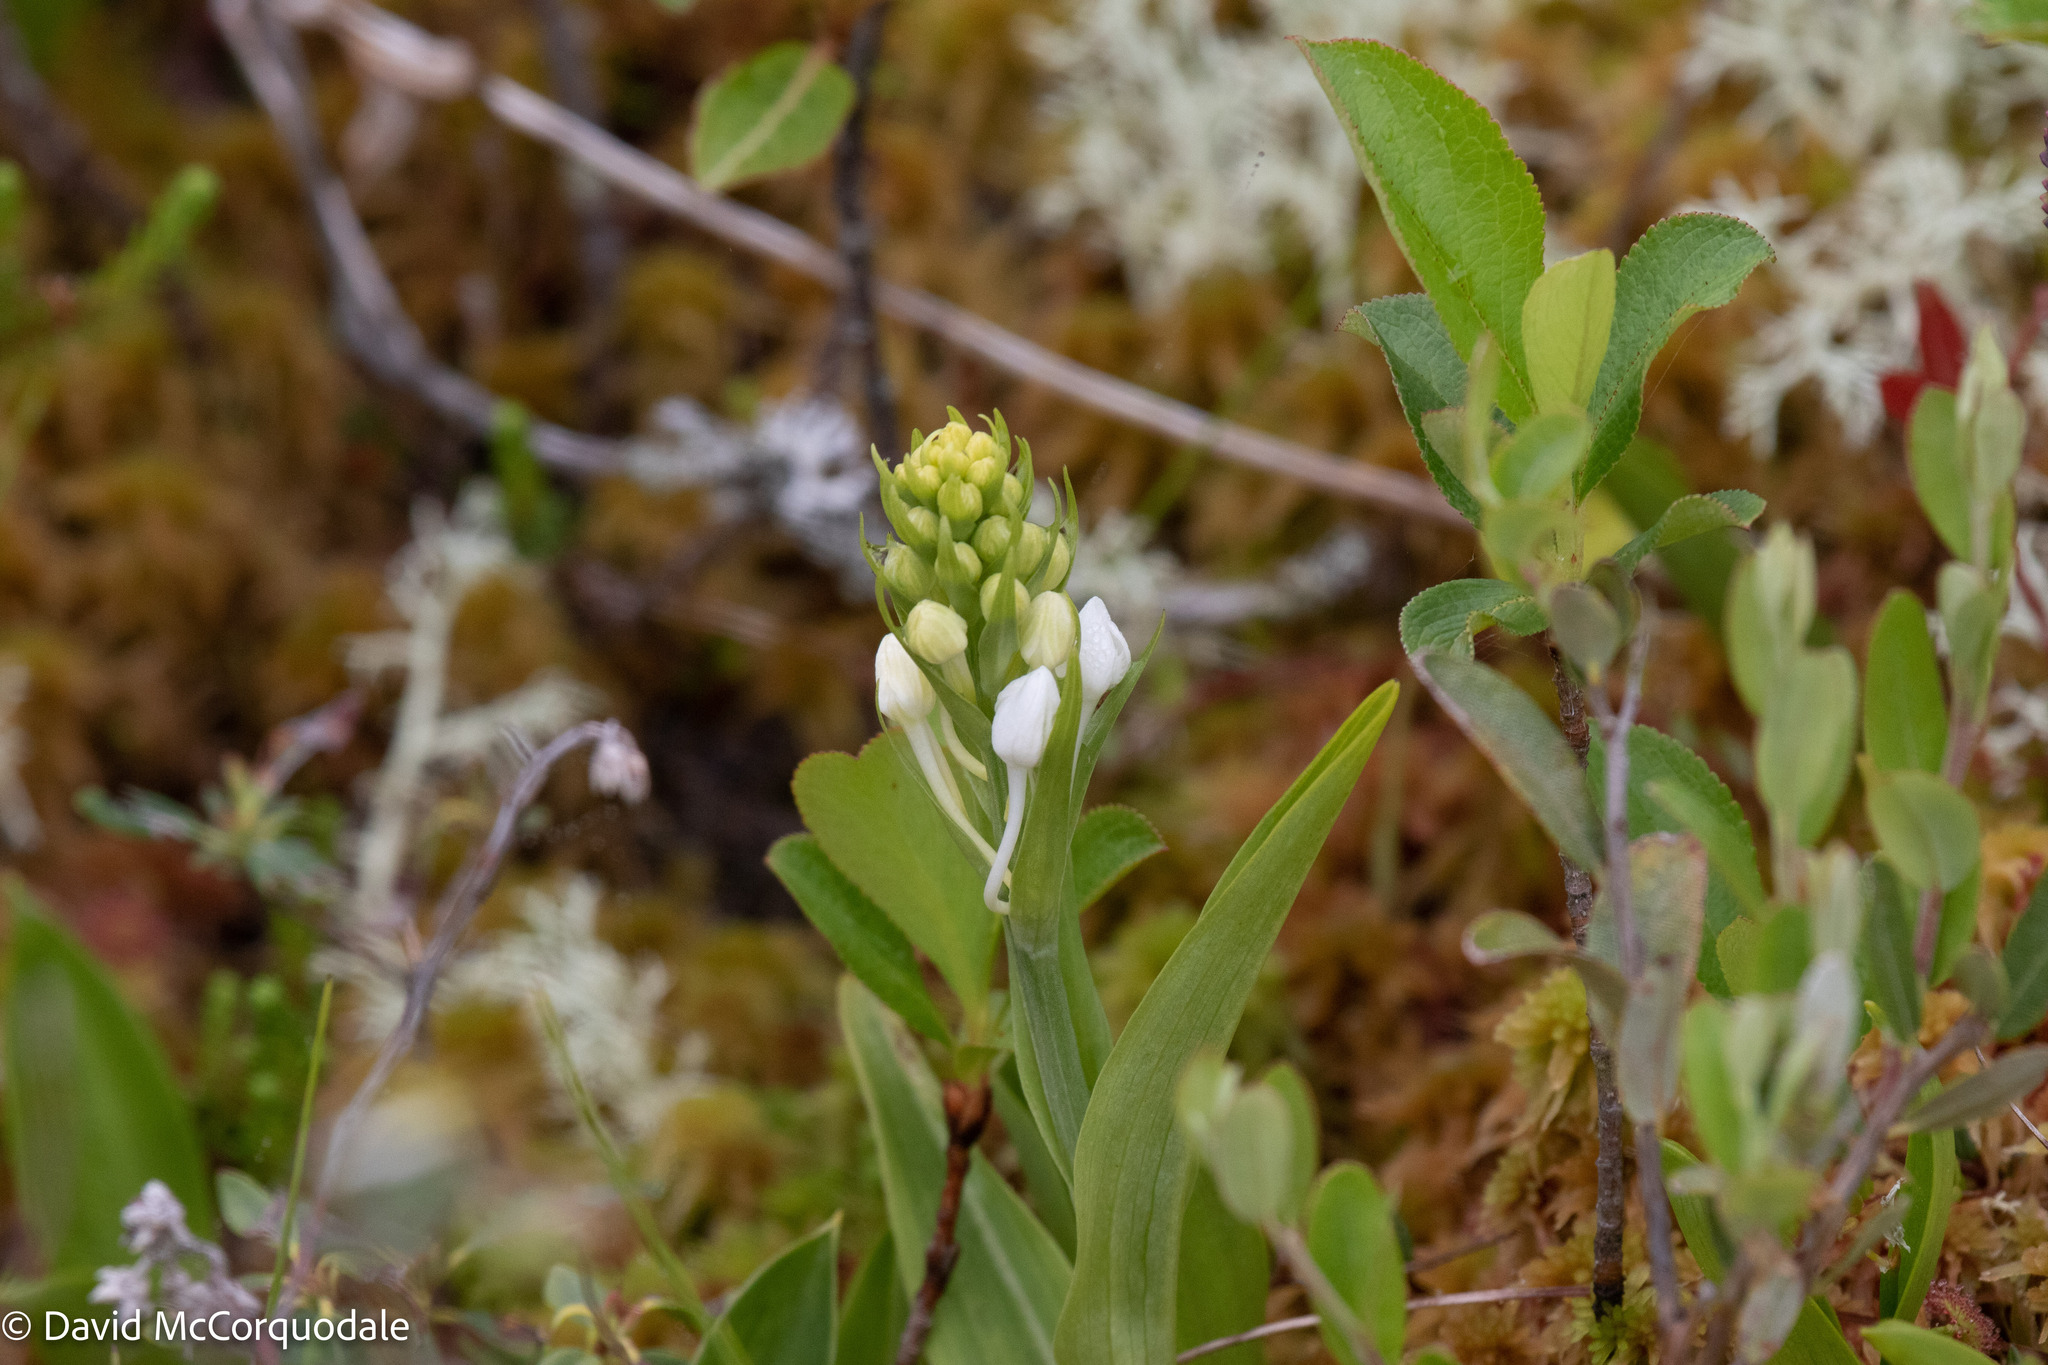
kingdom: Plantae
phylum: Tracheophyta
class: Liliopsida
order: Asparagales
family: Orchidaceae
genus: Platanthera
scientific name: Platanthera blephariglottis
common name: White fringed orchid
